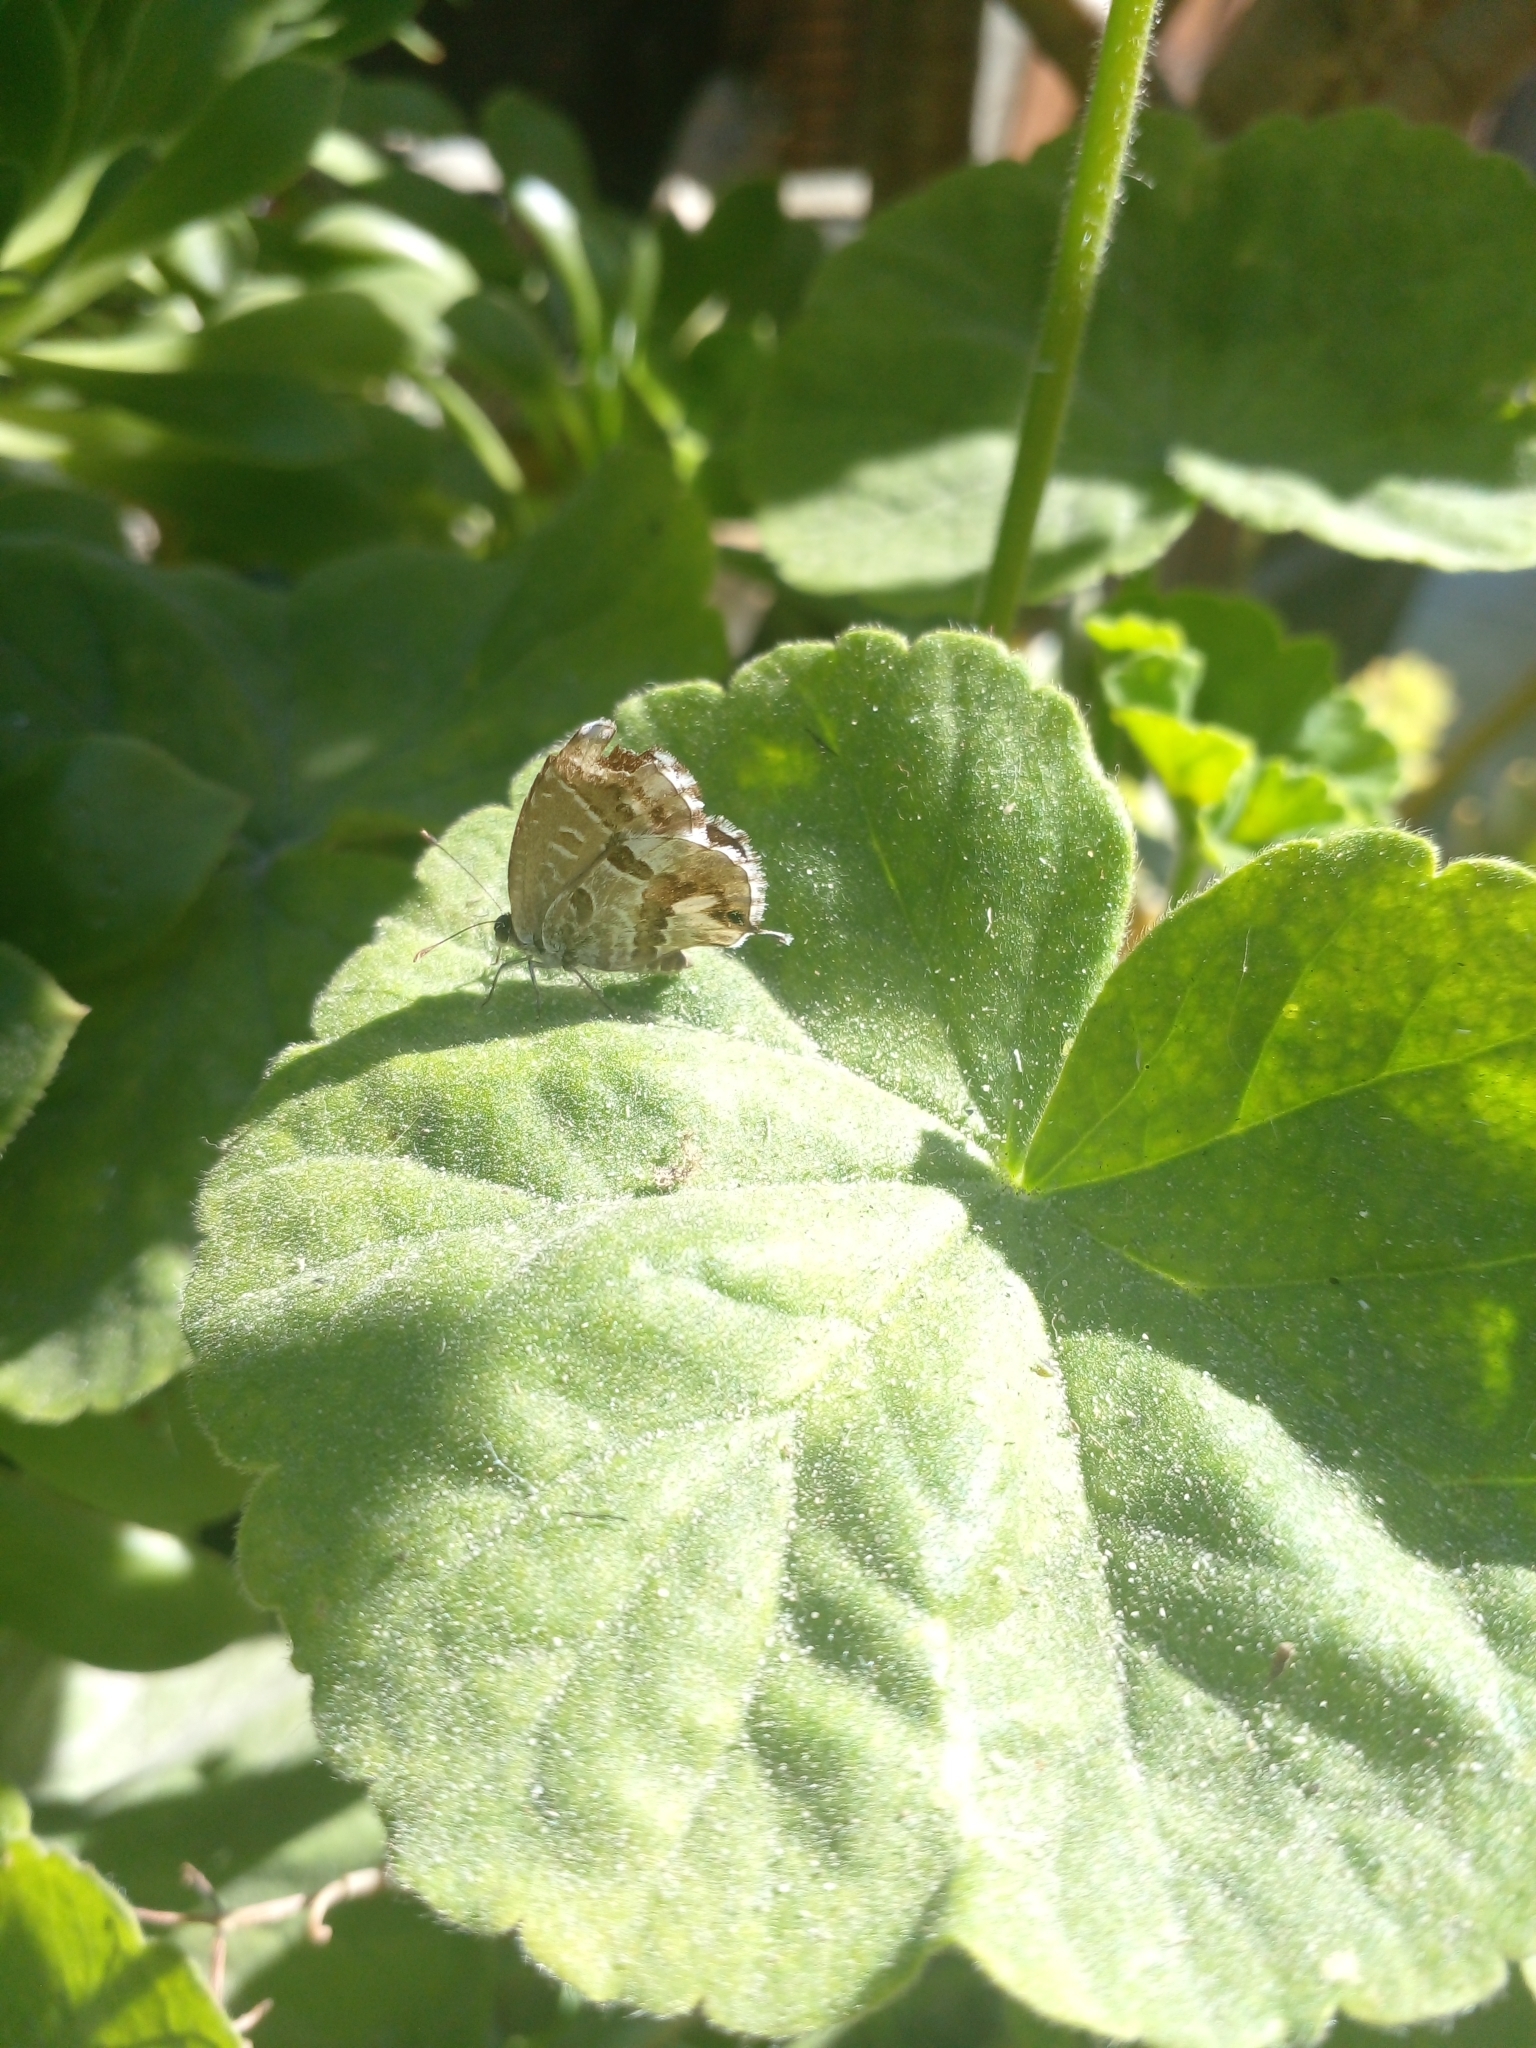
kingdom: Animalia
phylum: Arthropoda
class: Insecta
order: Lepidoptera
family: Lycaenidae
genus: Cacyreus
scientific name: Cacyreus marshalli
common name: Geranium bronze
